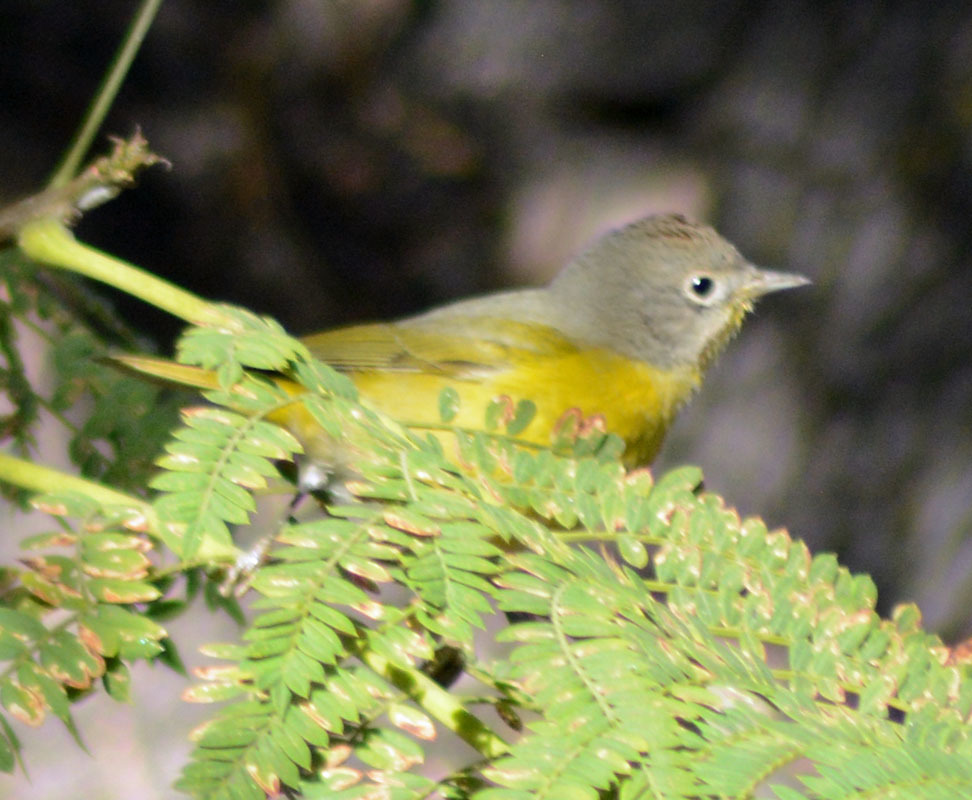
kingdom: Animalia
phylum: Chordata
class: Aves
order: Passeriformes
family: Parulidae
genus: Leiothlypis
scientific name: Leiothlypis ruficapilla
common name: Nashville warbler
